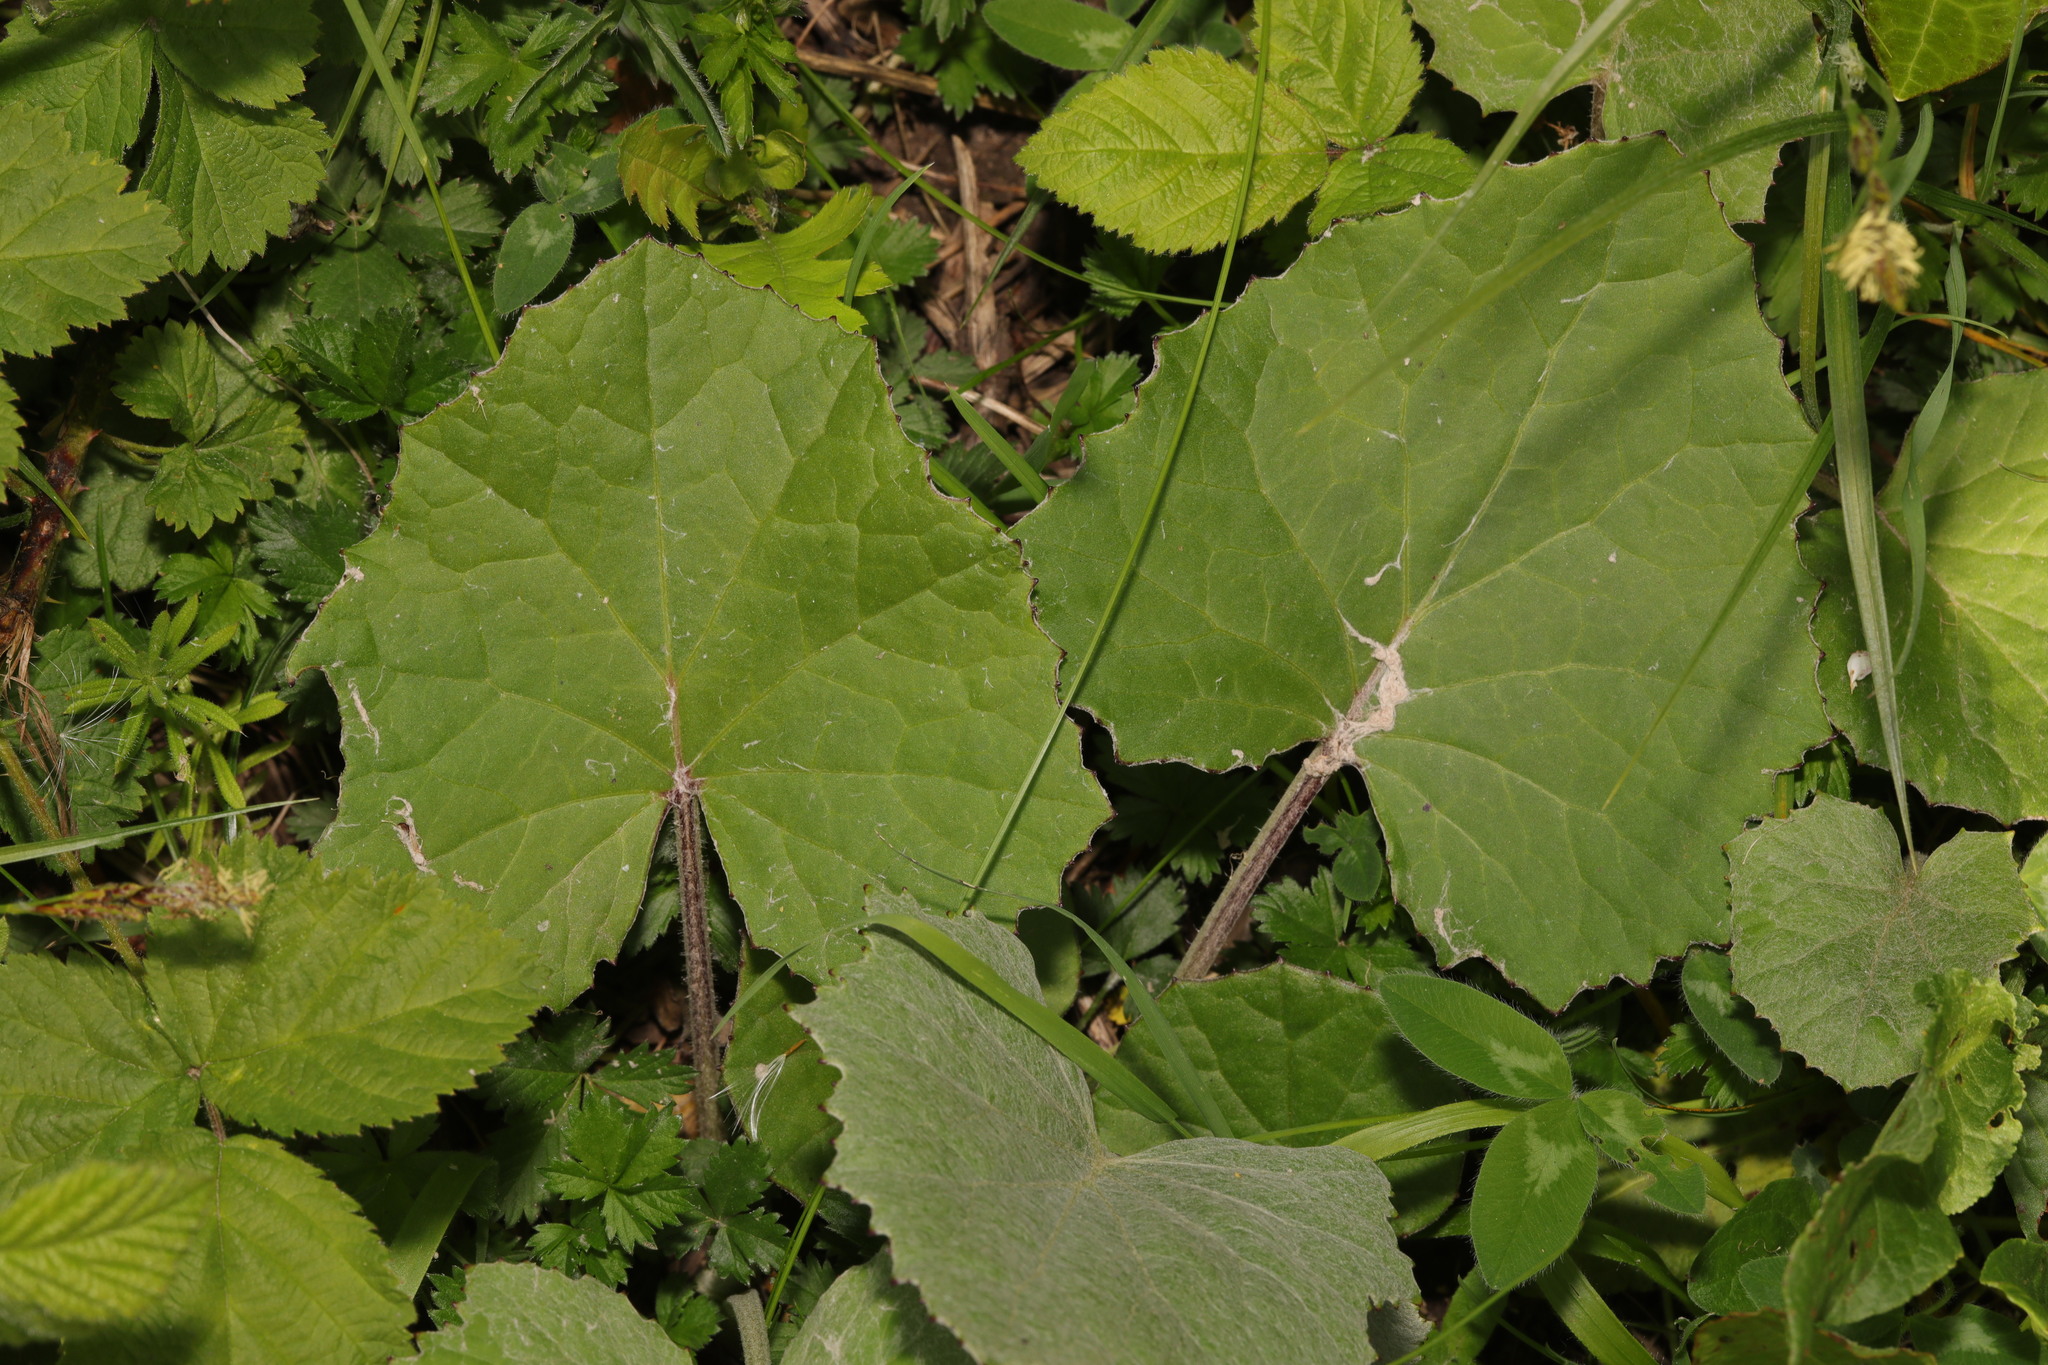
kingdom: Plantae
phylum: Tracheophyta
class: Magnoliopsida
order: Asterales
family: Asteraceae
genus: Tussilago
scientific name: Tussilago farfara
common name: Coltsfoot
